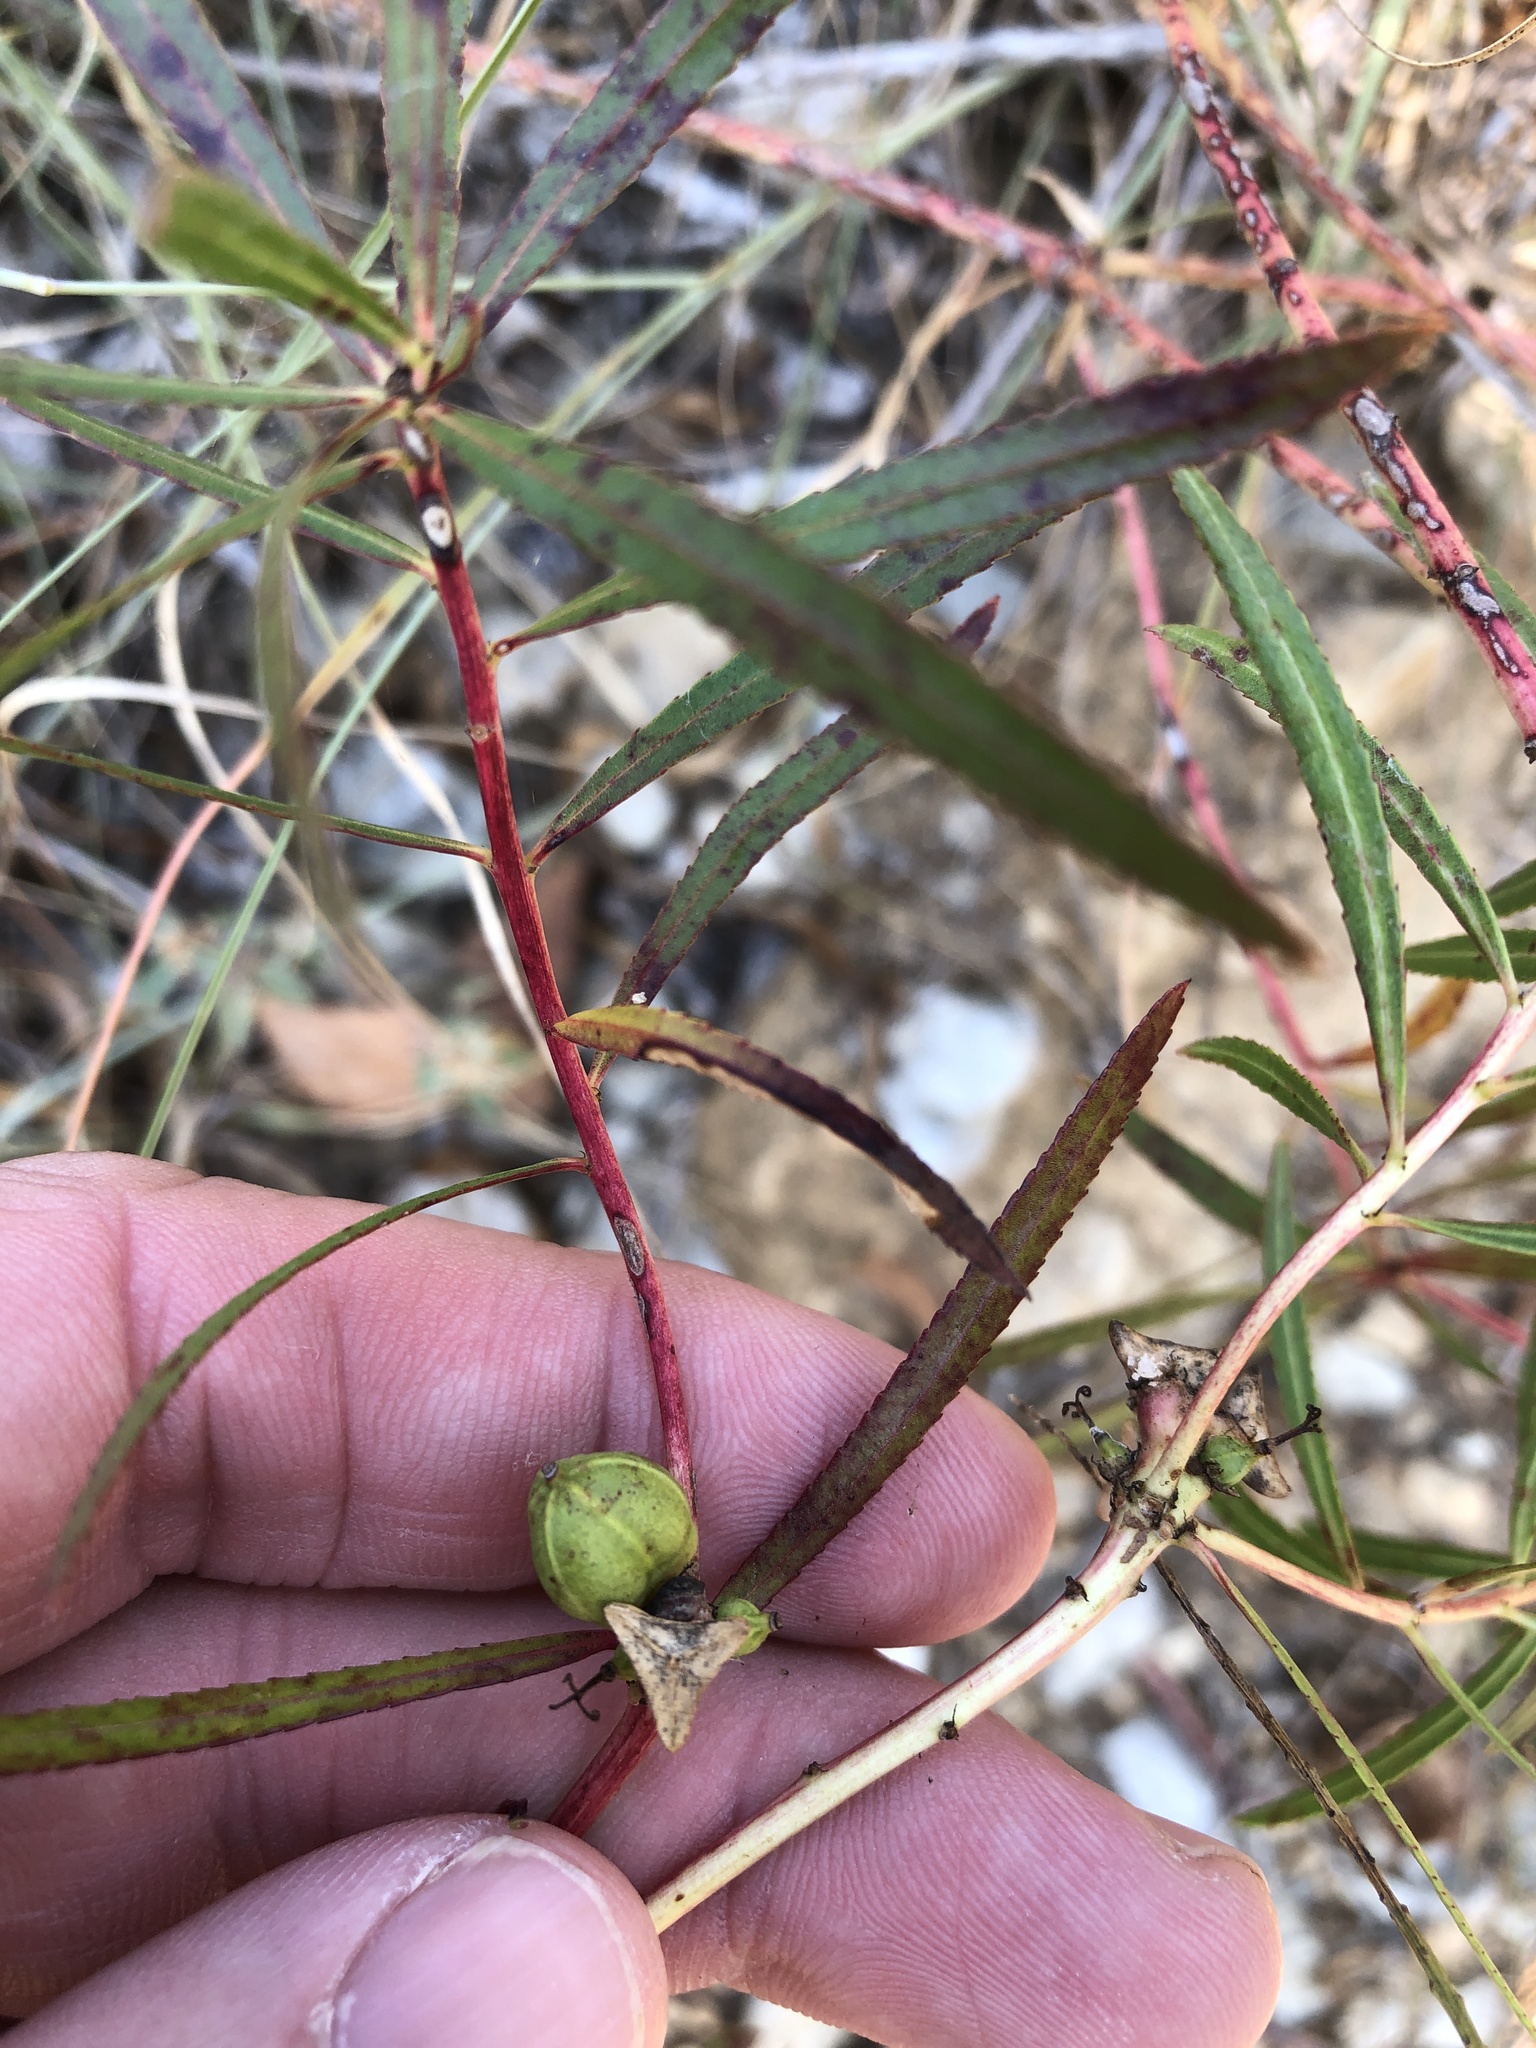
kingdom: Plantae
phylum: Tracheophyta
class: Magnoliopsida
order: Malpighiales
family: Euphorbiaceae
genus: Stillingia
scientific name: Stillingia texana
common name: Texas stillingia
